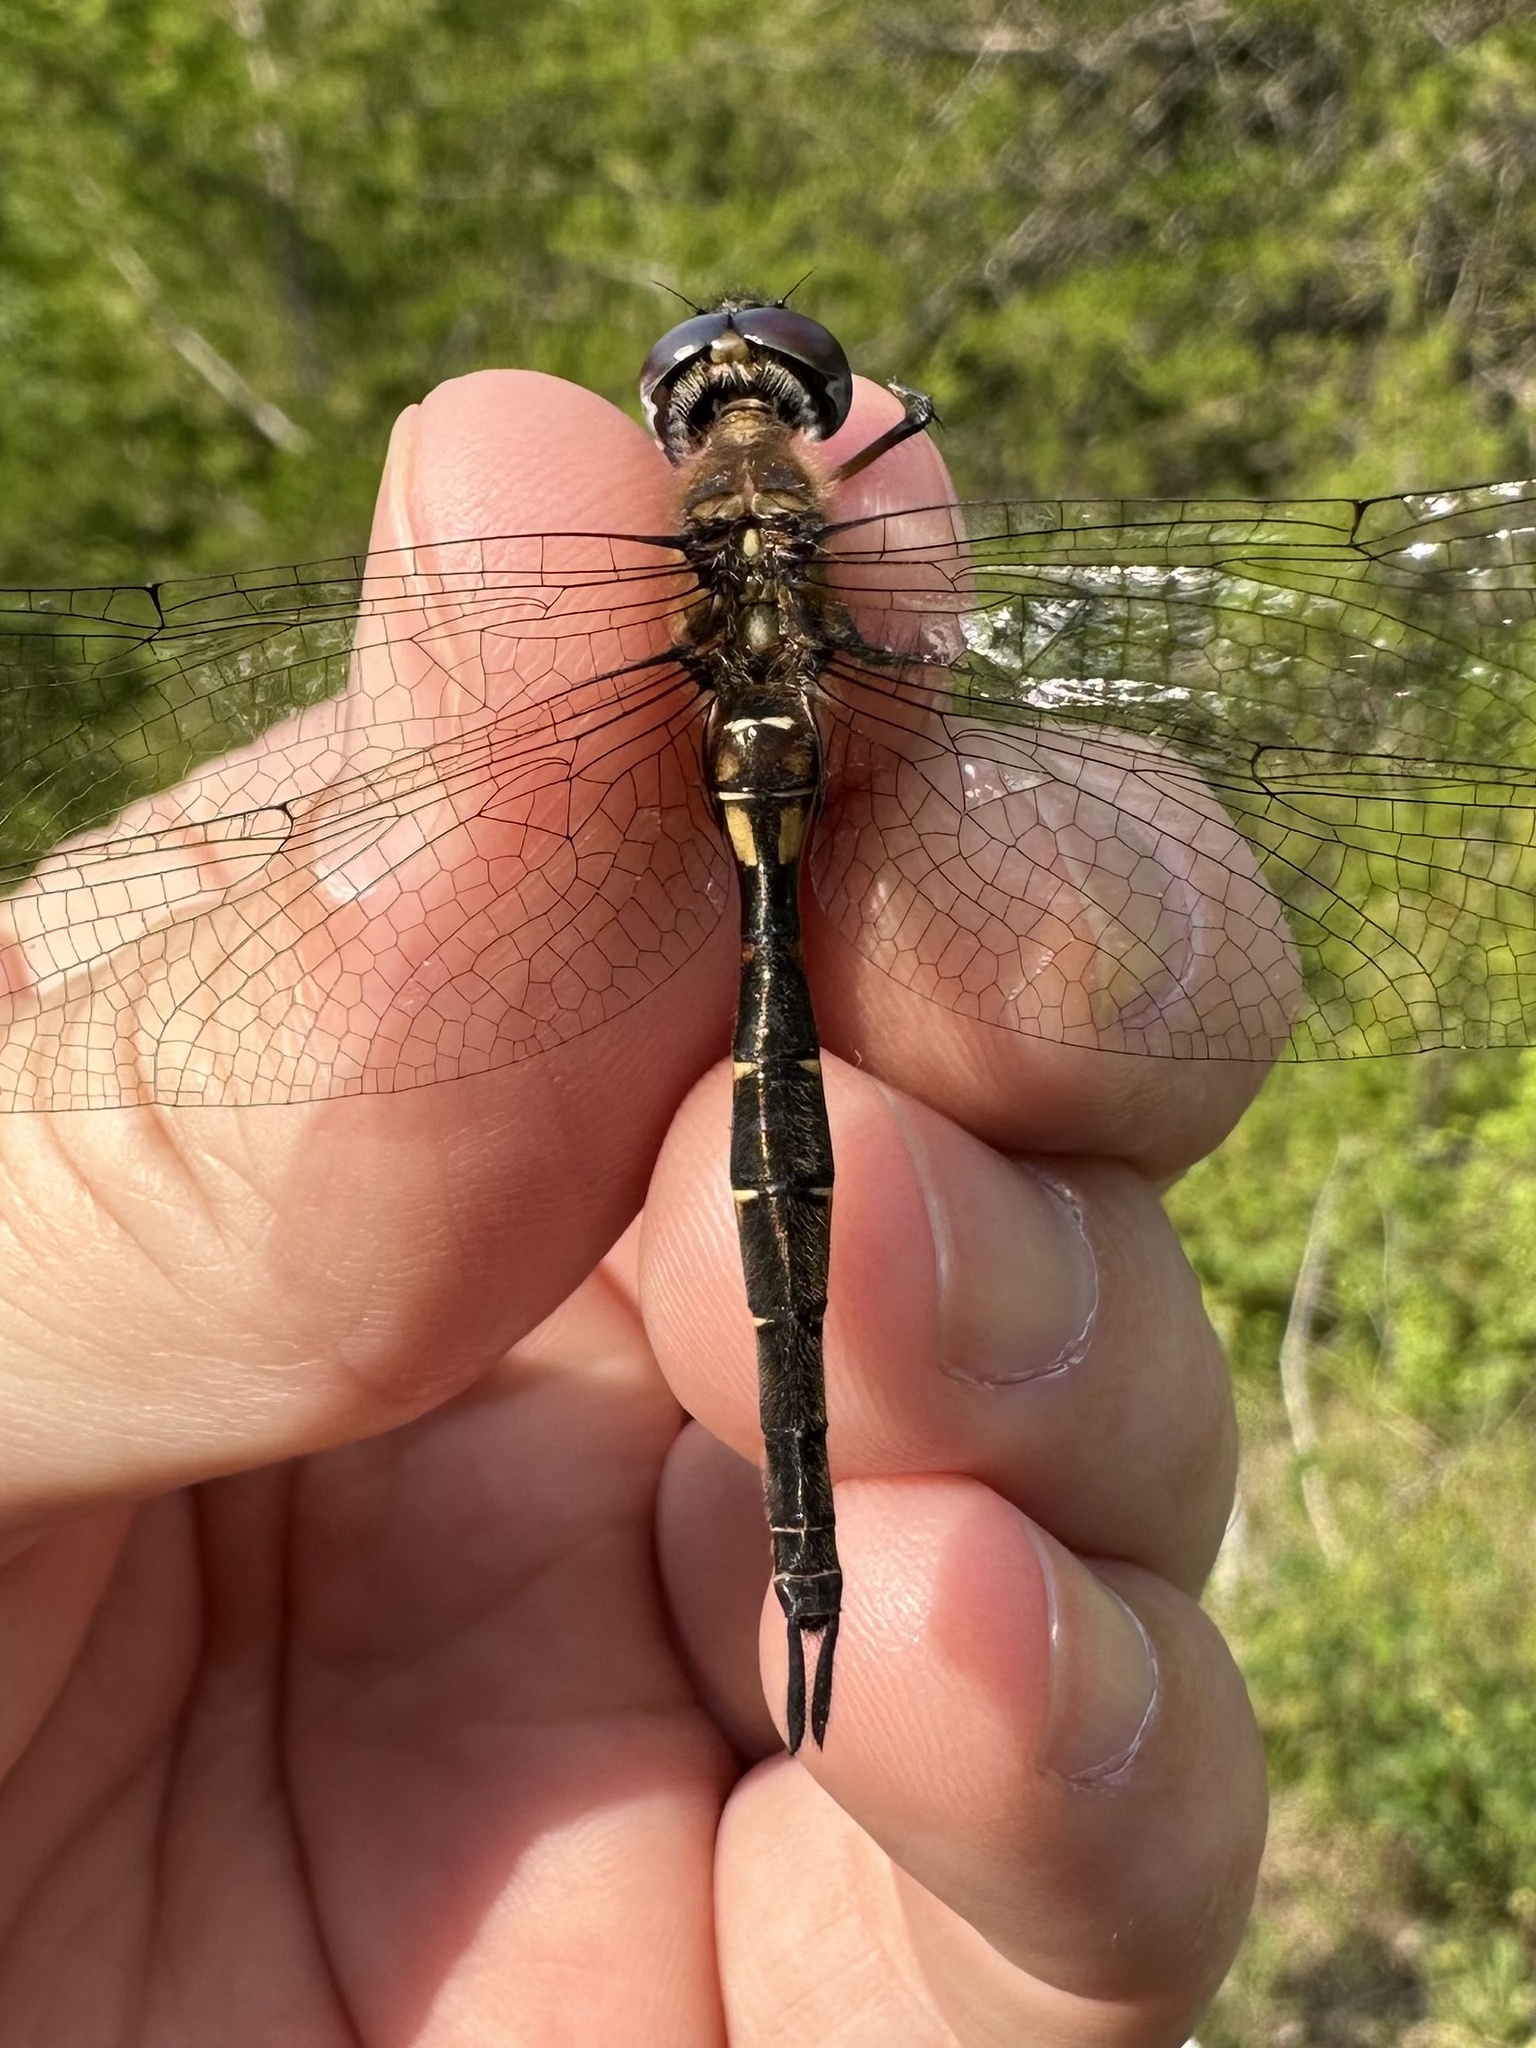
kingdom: Animalia
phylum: Arthropoda
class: Insecta
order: Odonata
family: Corduliidae
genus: Somatochlora
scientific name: Somatochlora walshii
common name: Brush-tipped emerald
